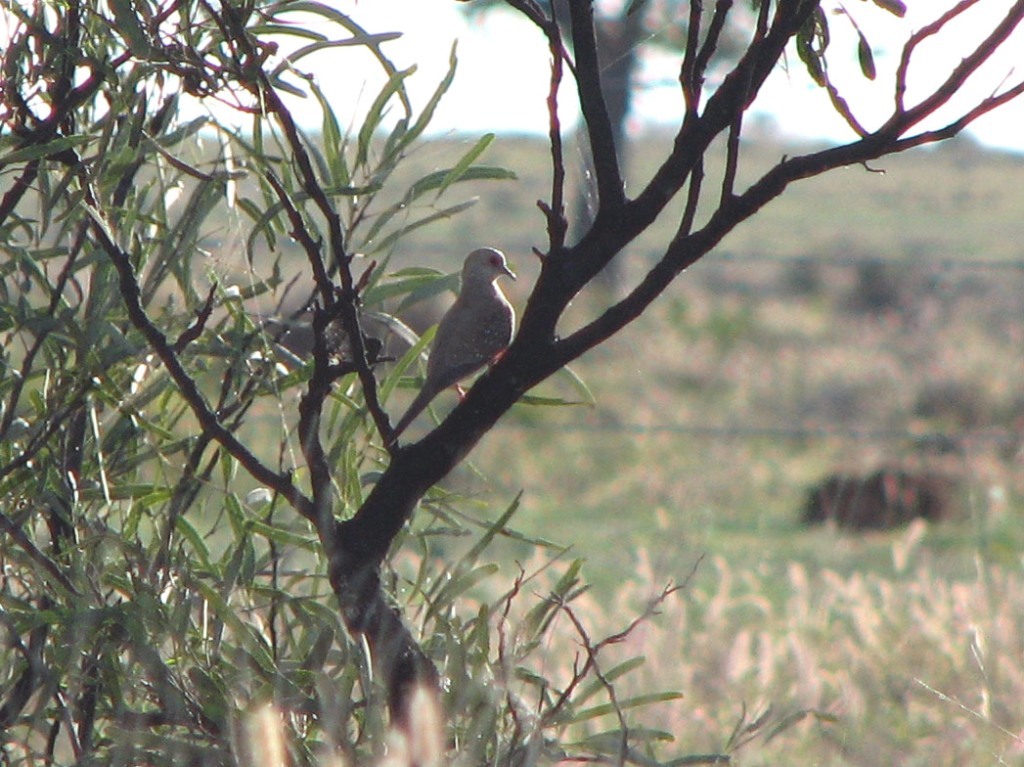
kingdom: Animalia
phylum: Chordata
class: Aves
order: Columbiformes
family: Columbidae
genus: Geopelia
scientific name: Geopelia cuneata
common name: Diamond dove
